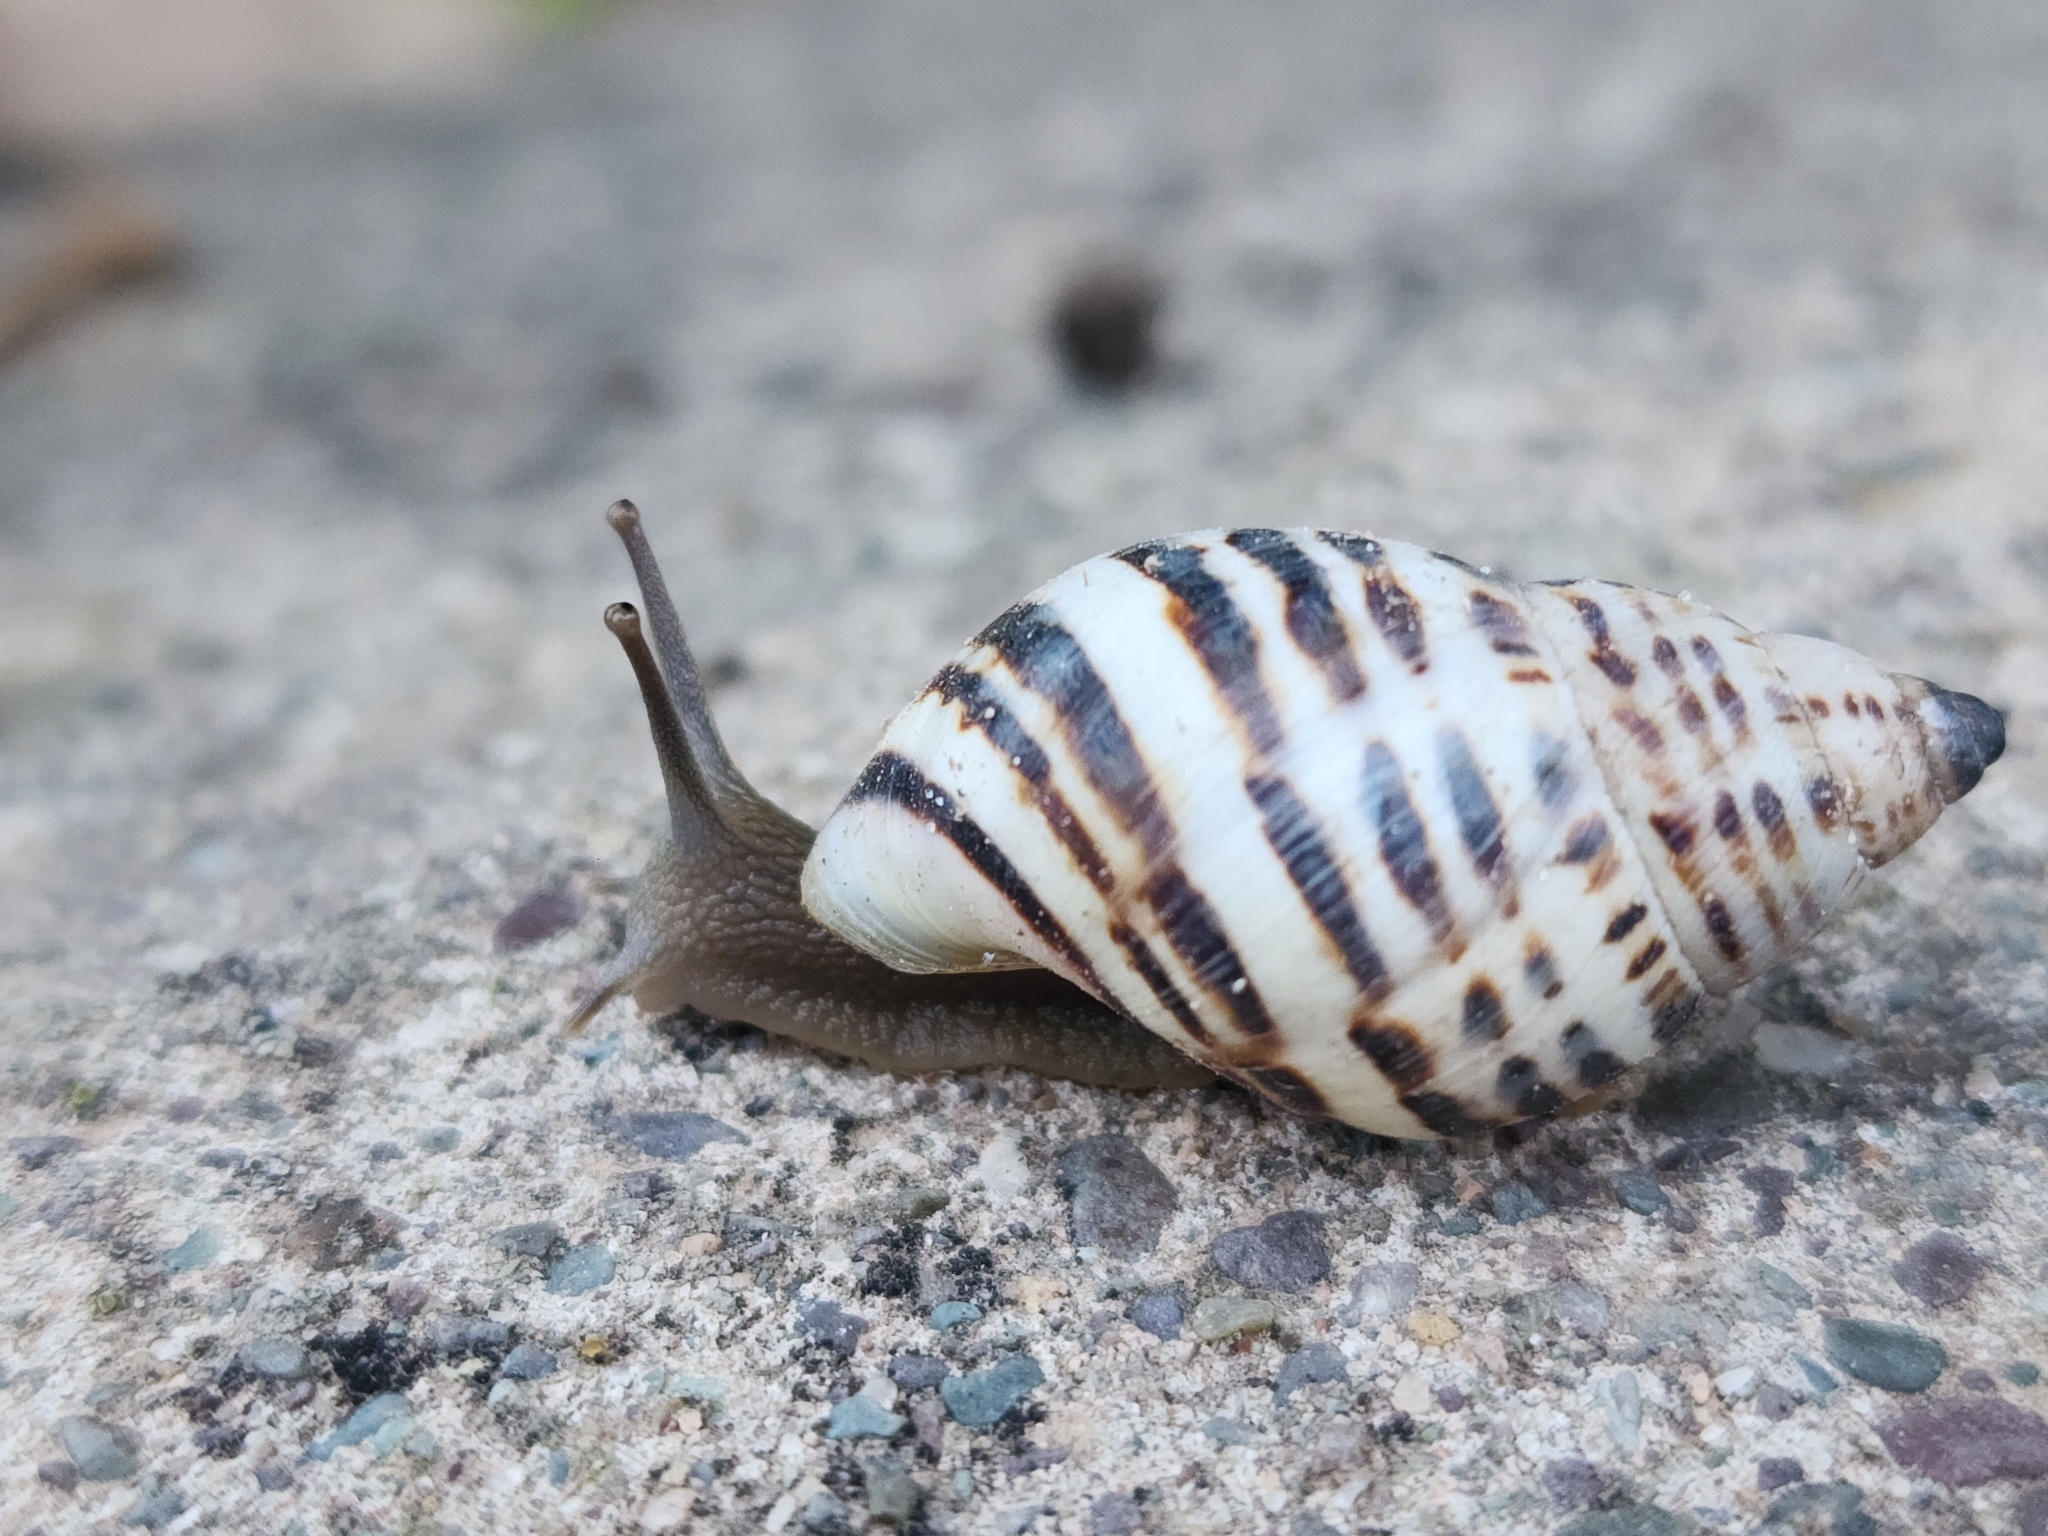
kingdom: Animalia
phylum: Mollusca
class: Gastropoda
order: Stylommatophora
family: Bulimulidae
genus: Drymaeus
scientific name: Drymaeus poecilus
